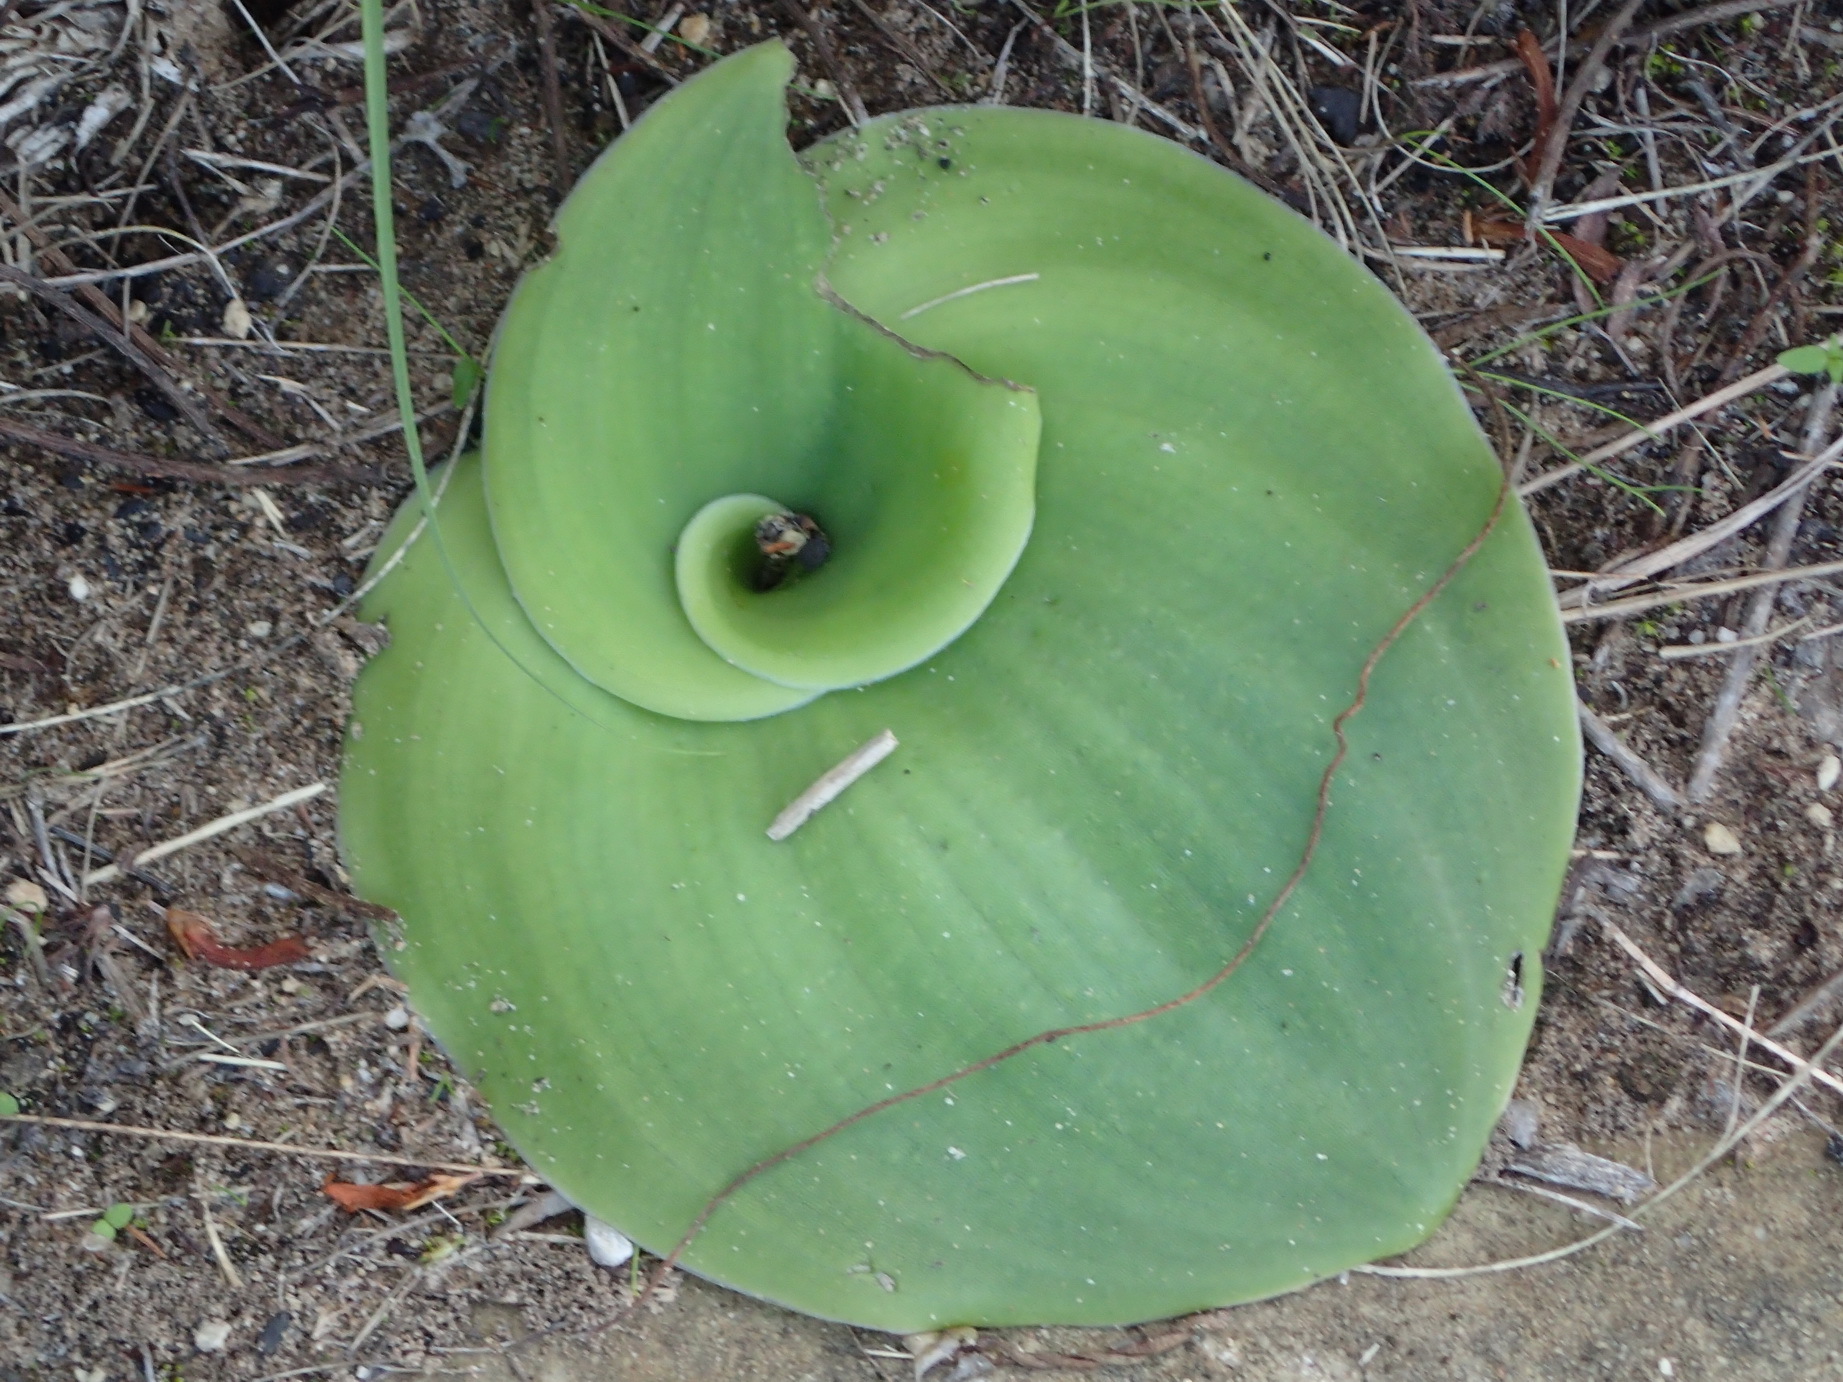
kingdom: Plantae
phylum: Tracheophyta
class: Liliopsida
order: Asparagales
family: Orchidaceae
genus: Satyrium
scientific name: Satyrium princeps
